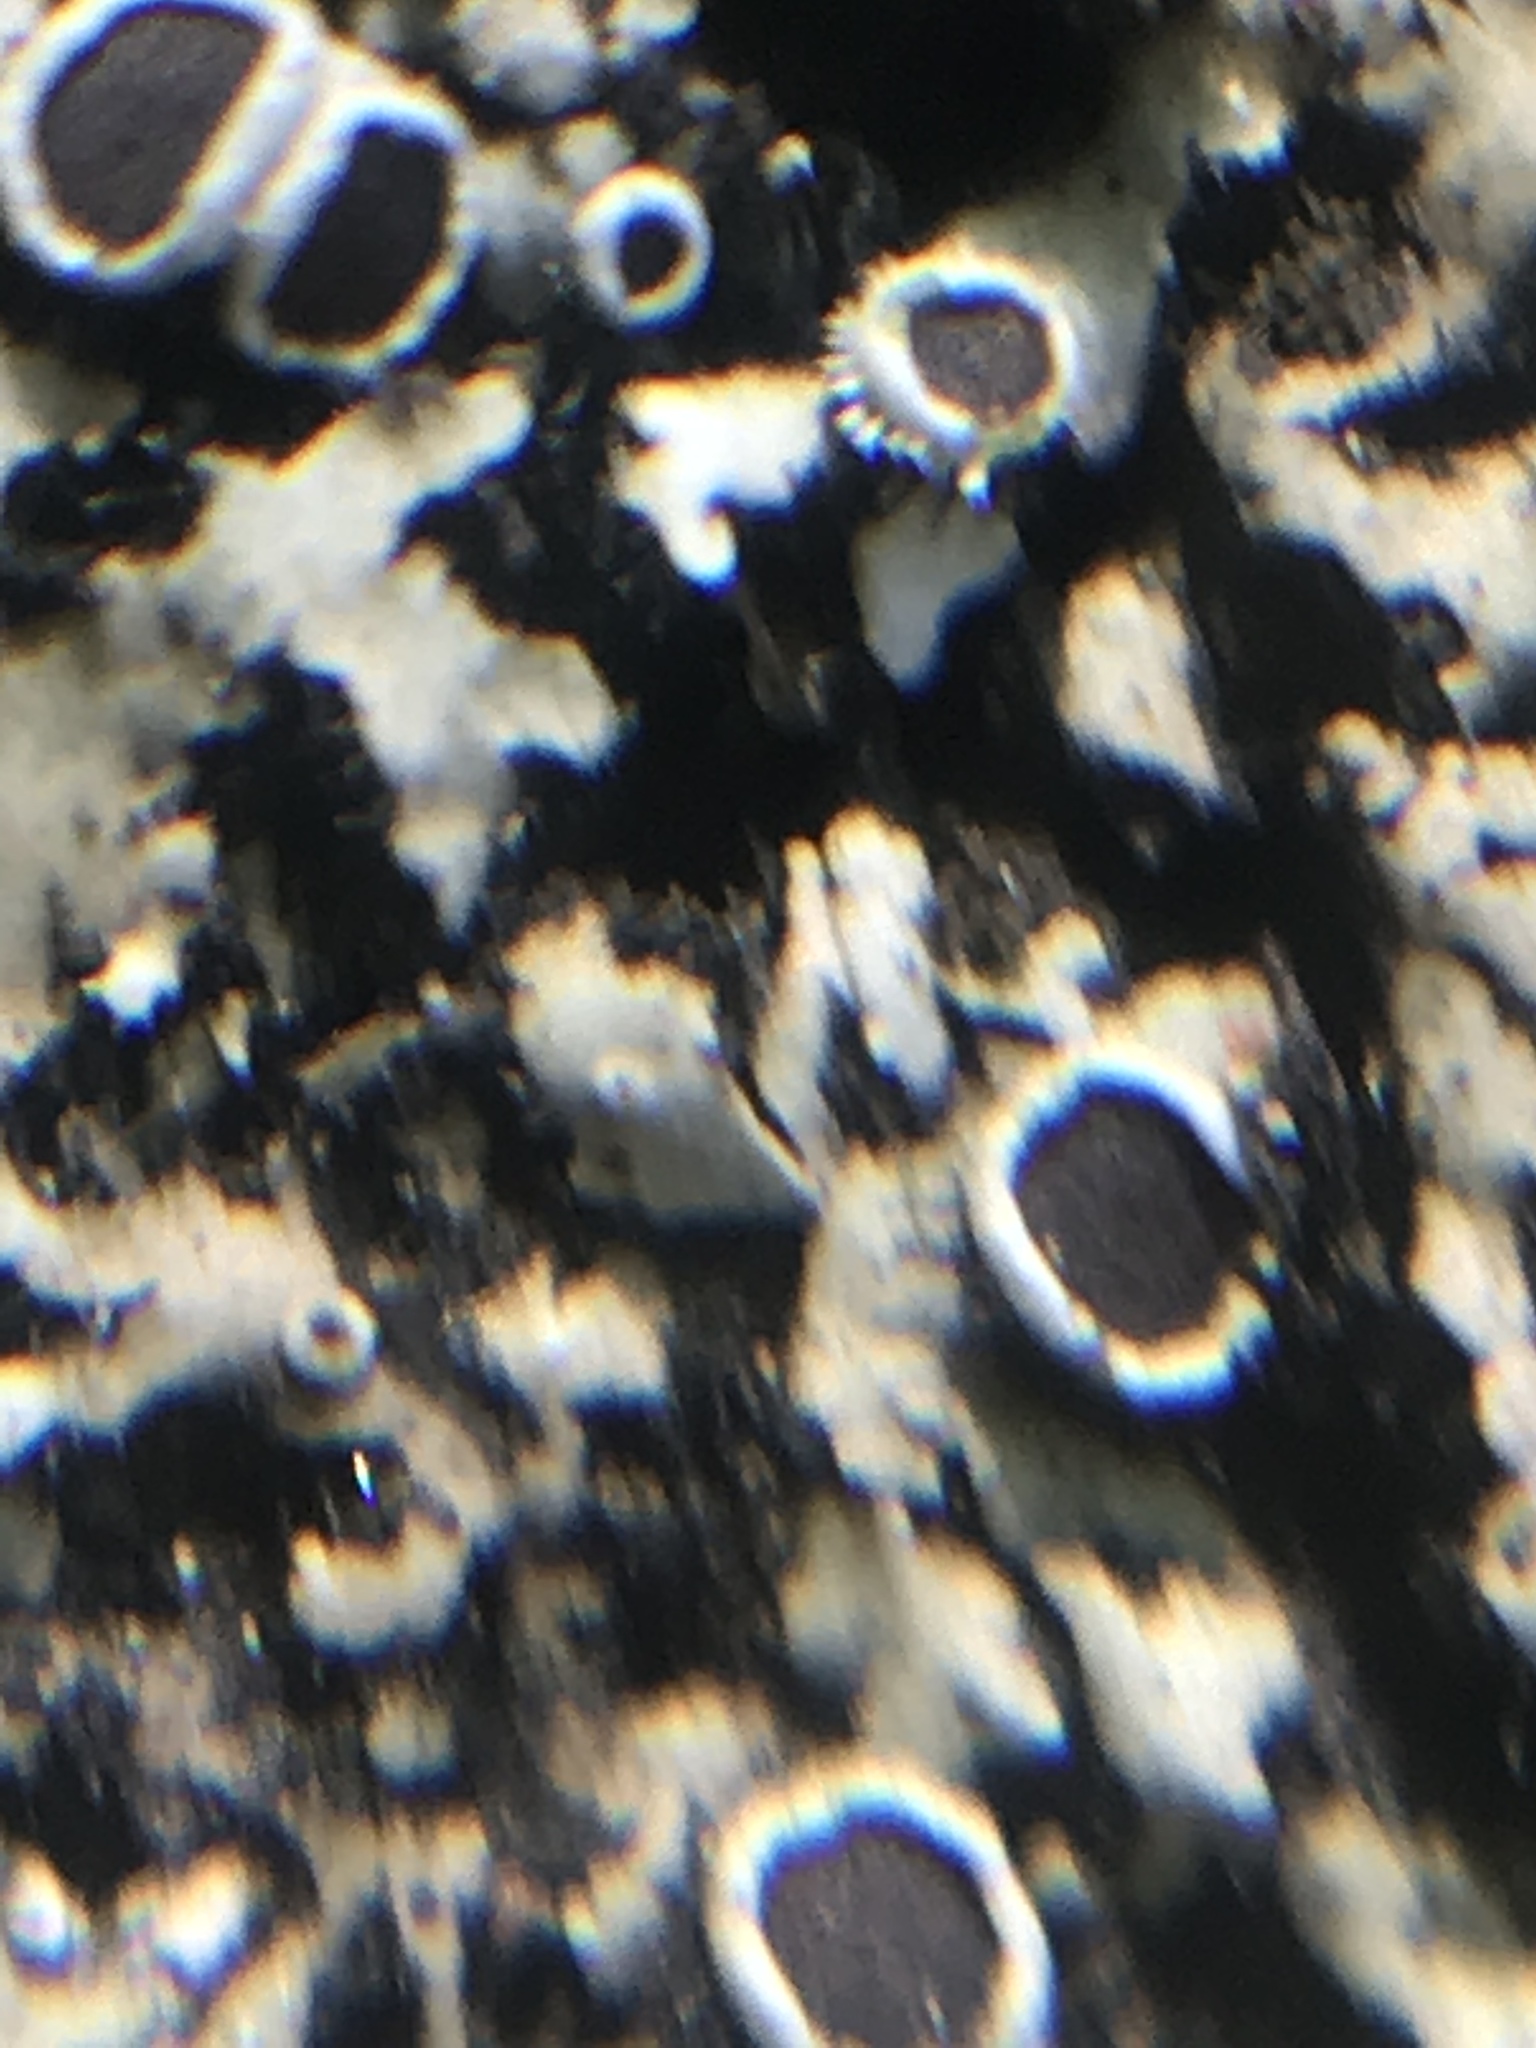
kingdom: Fungi
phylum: Ascomycota
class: Lecanoromycetes
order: Caliciales
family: Physciaceae
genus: Phaeophyscia
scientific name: Phaeophyscia hirtella
